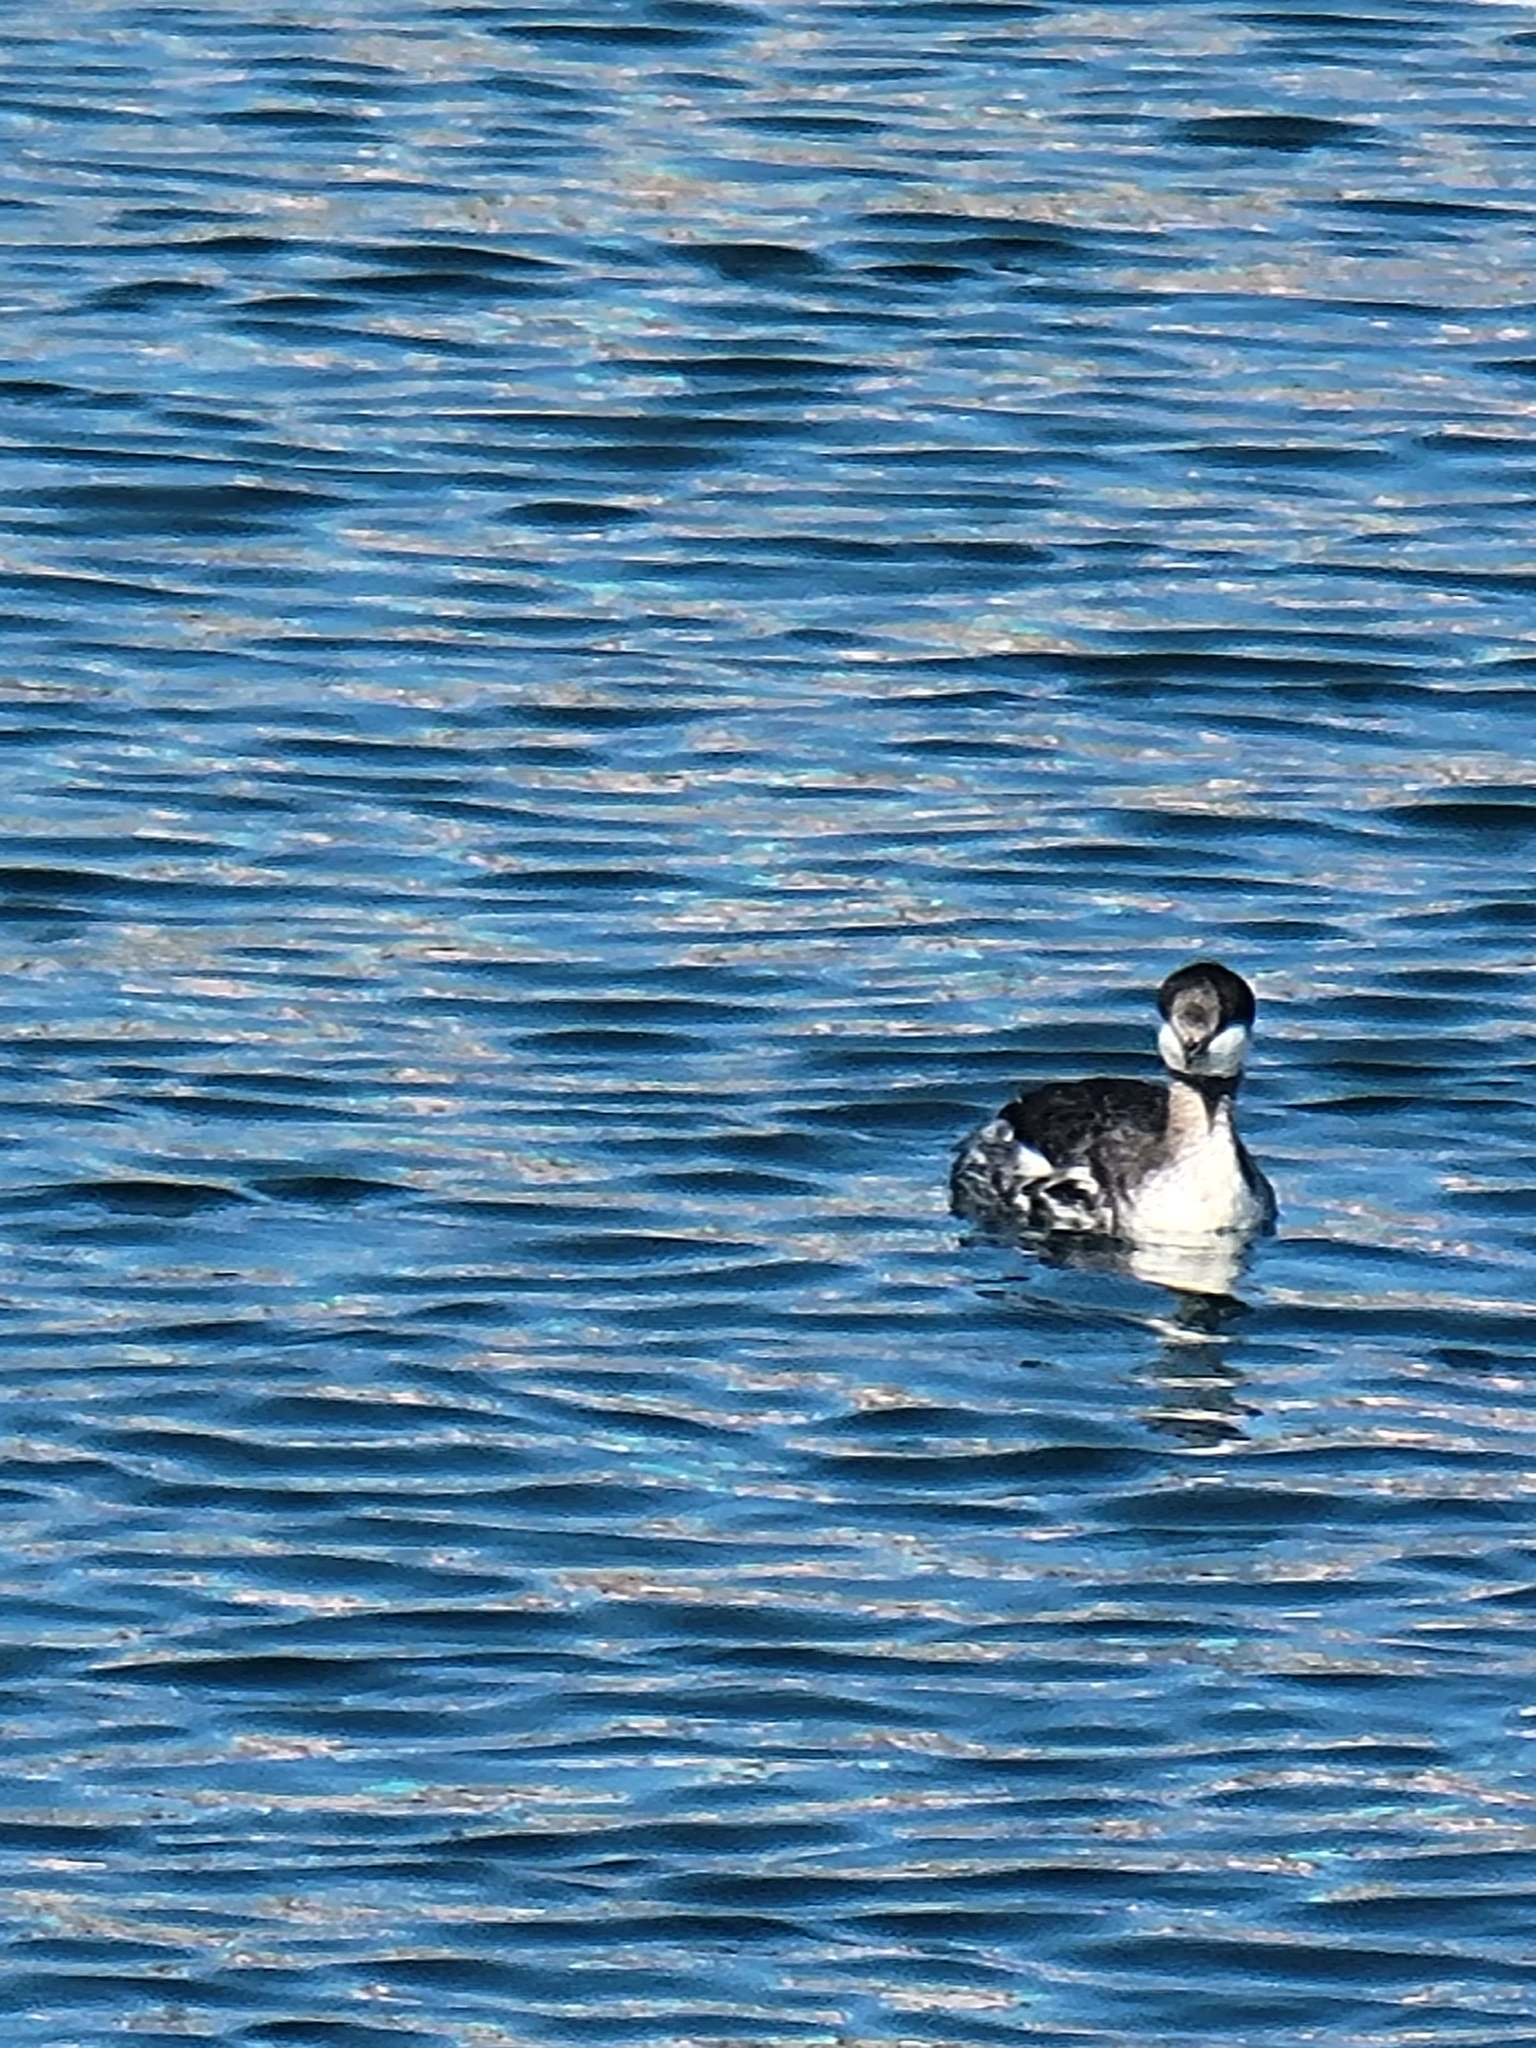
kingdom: Animalia
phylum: Chordata
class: Aves
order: Podicipediformes
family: Podicipedidae
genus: Podiceps
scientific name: Podiceps auritus
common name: Horned grebe
